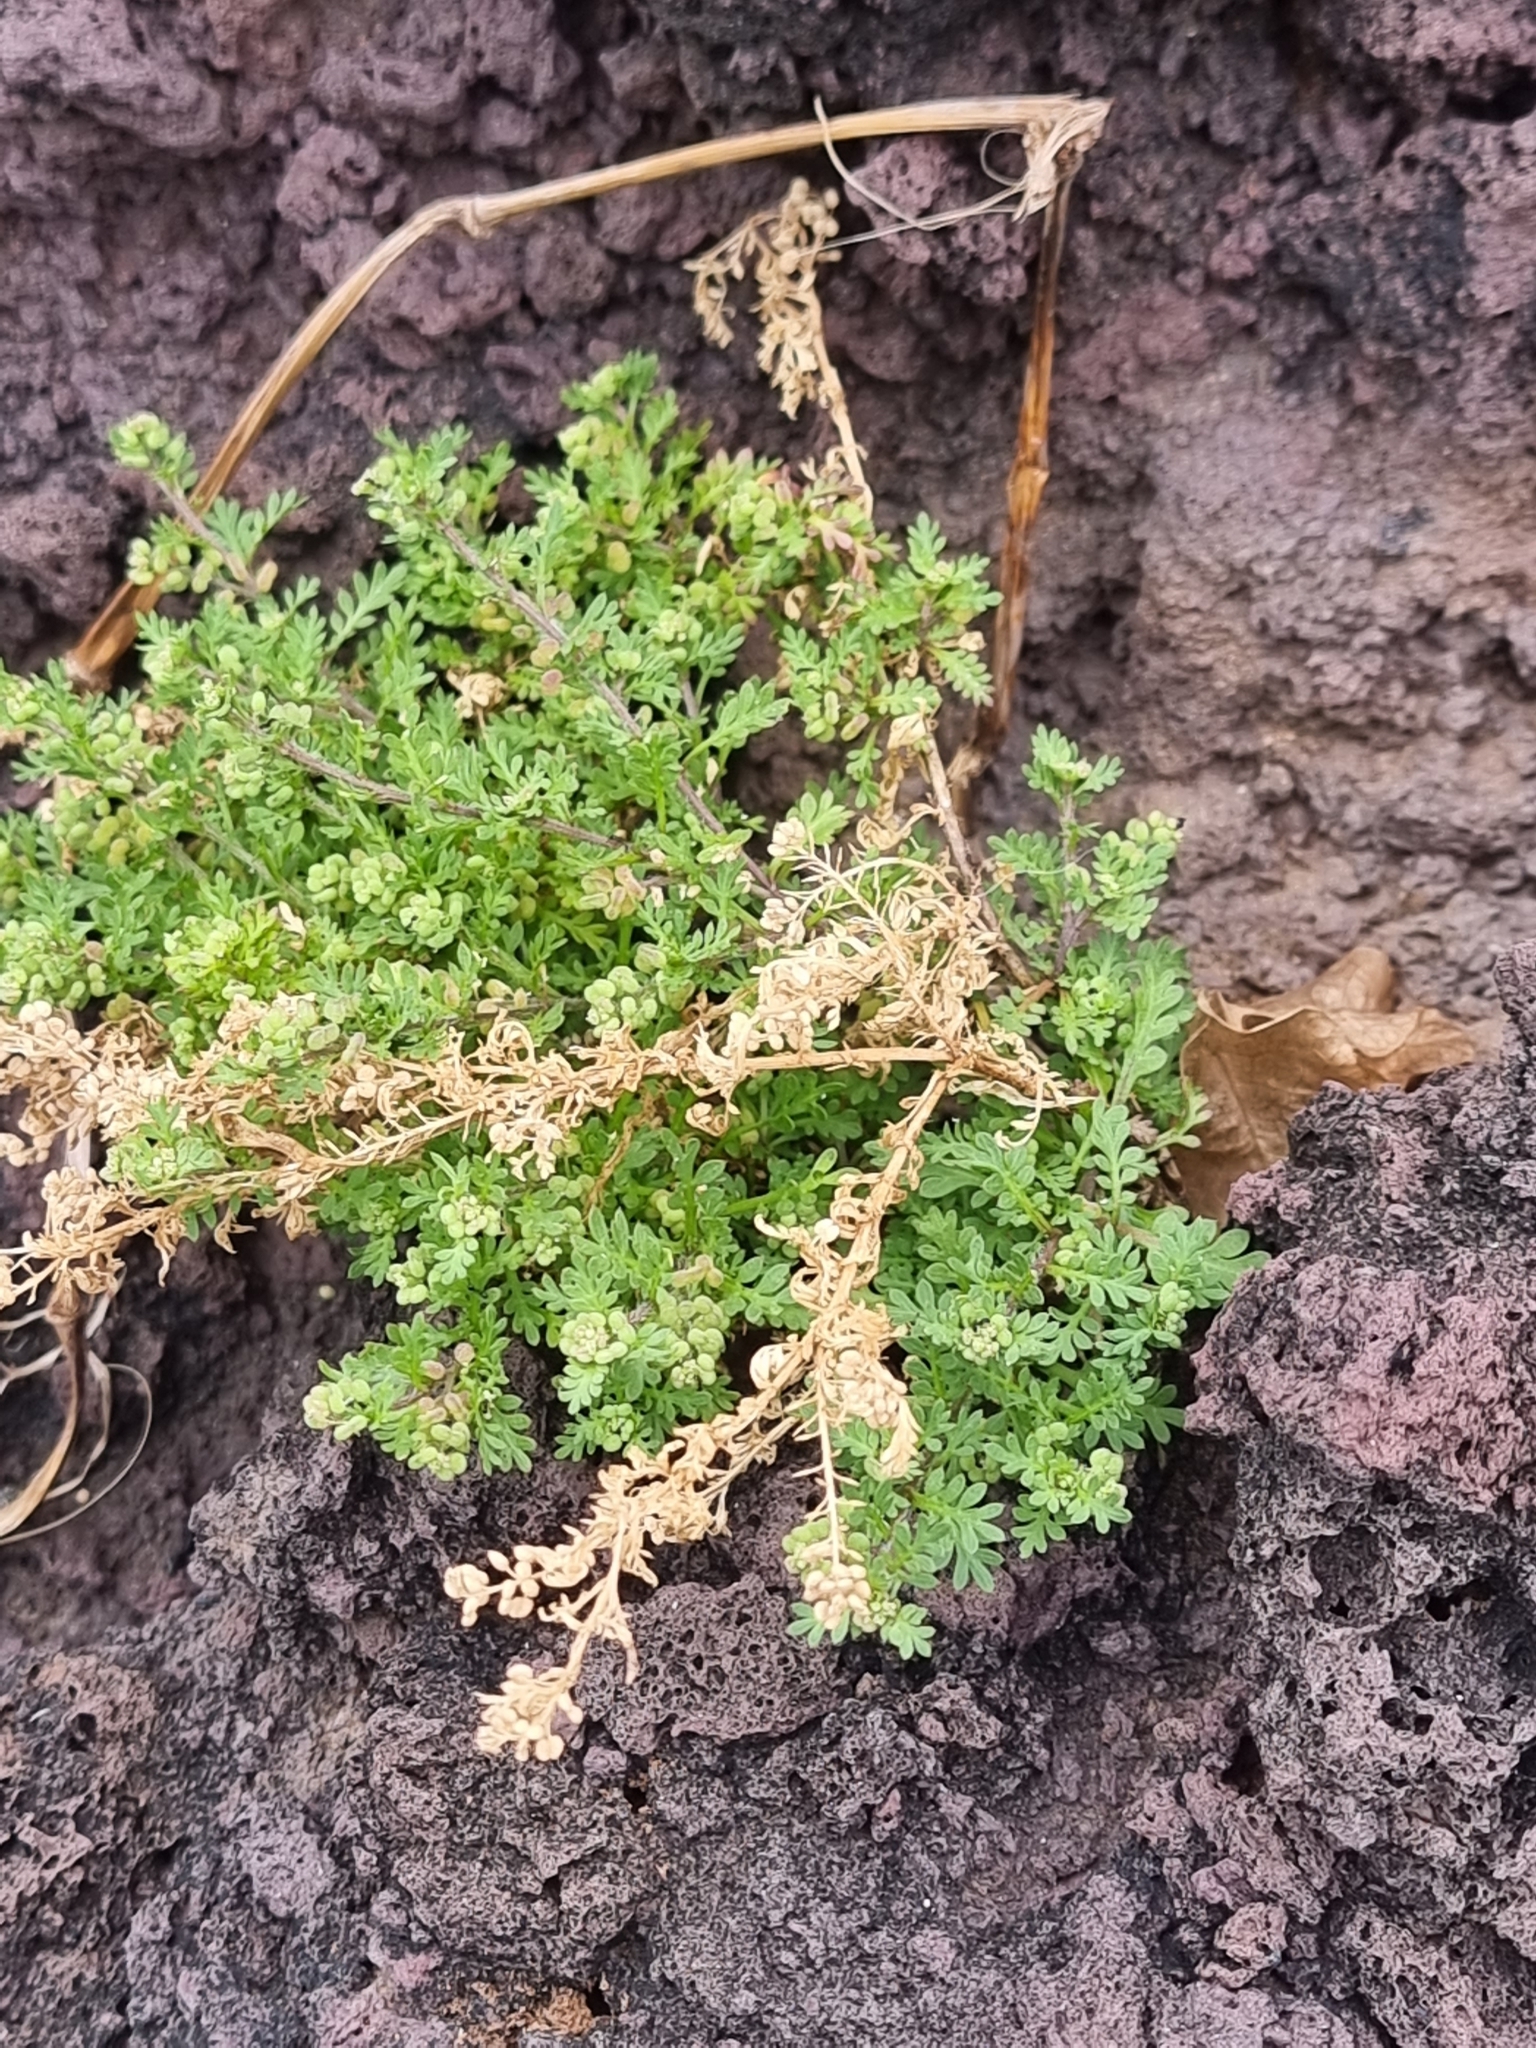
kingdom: Plantae
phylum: Tracheophyta
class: Magnoliopsida
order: Brassicales
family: Brassicaceae
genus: Lepidium
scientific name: Lepidium didymum
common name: Lesser swinecress
